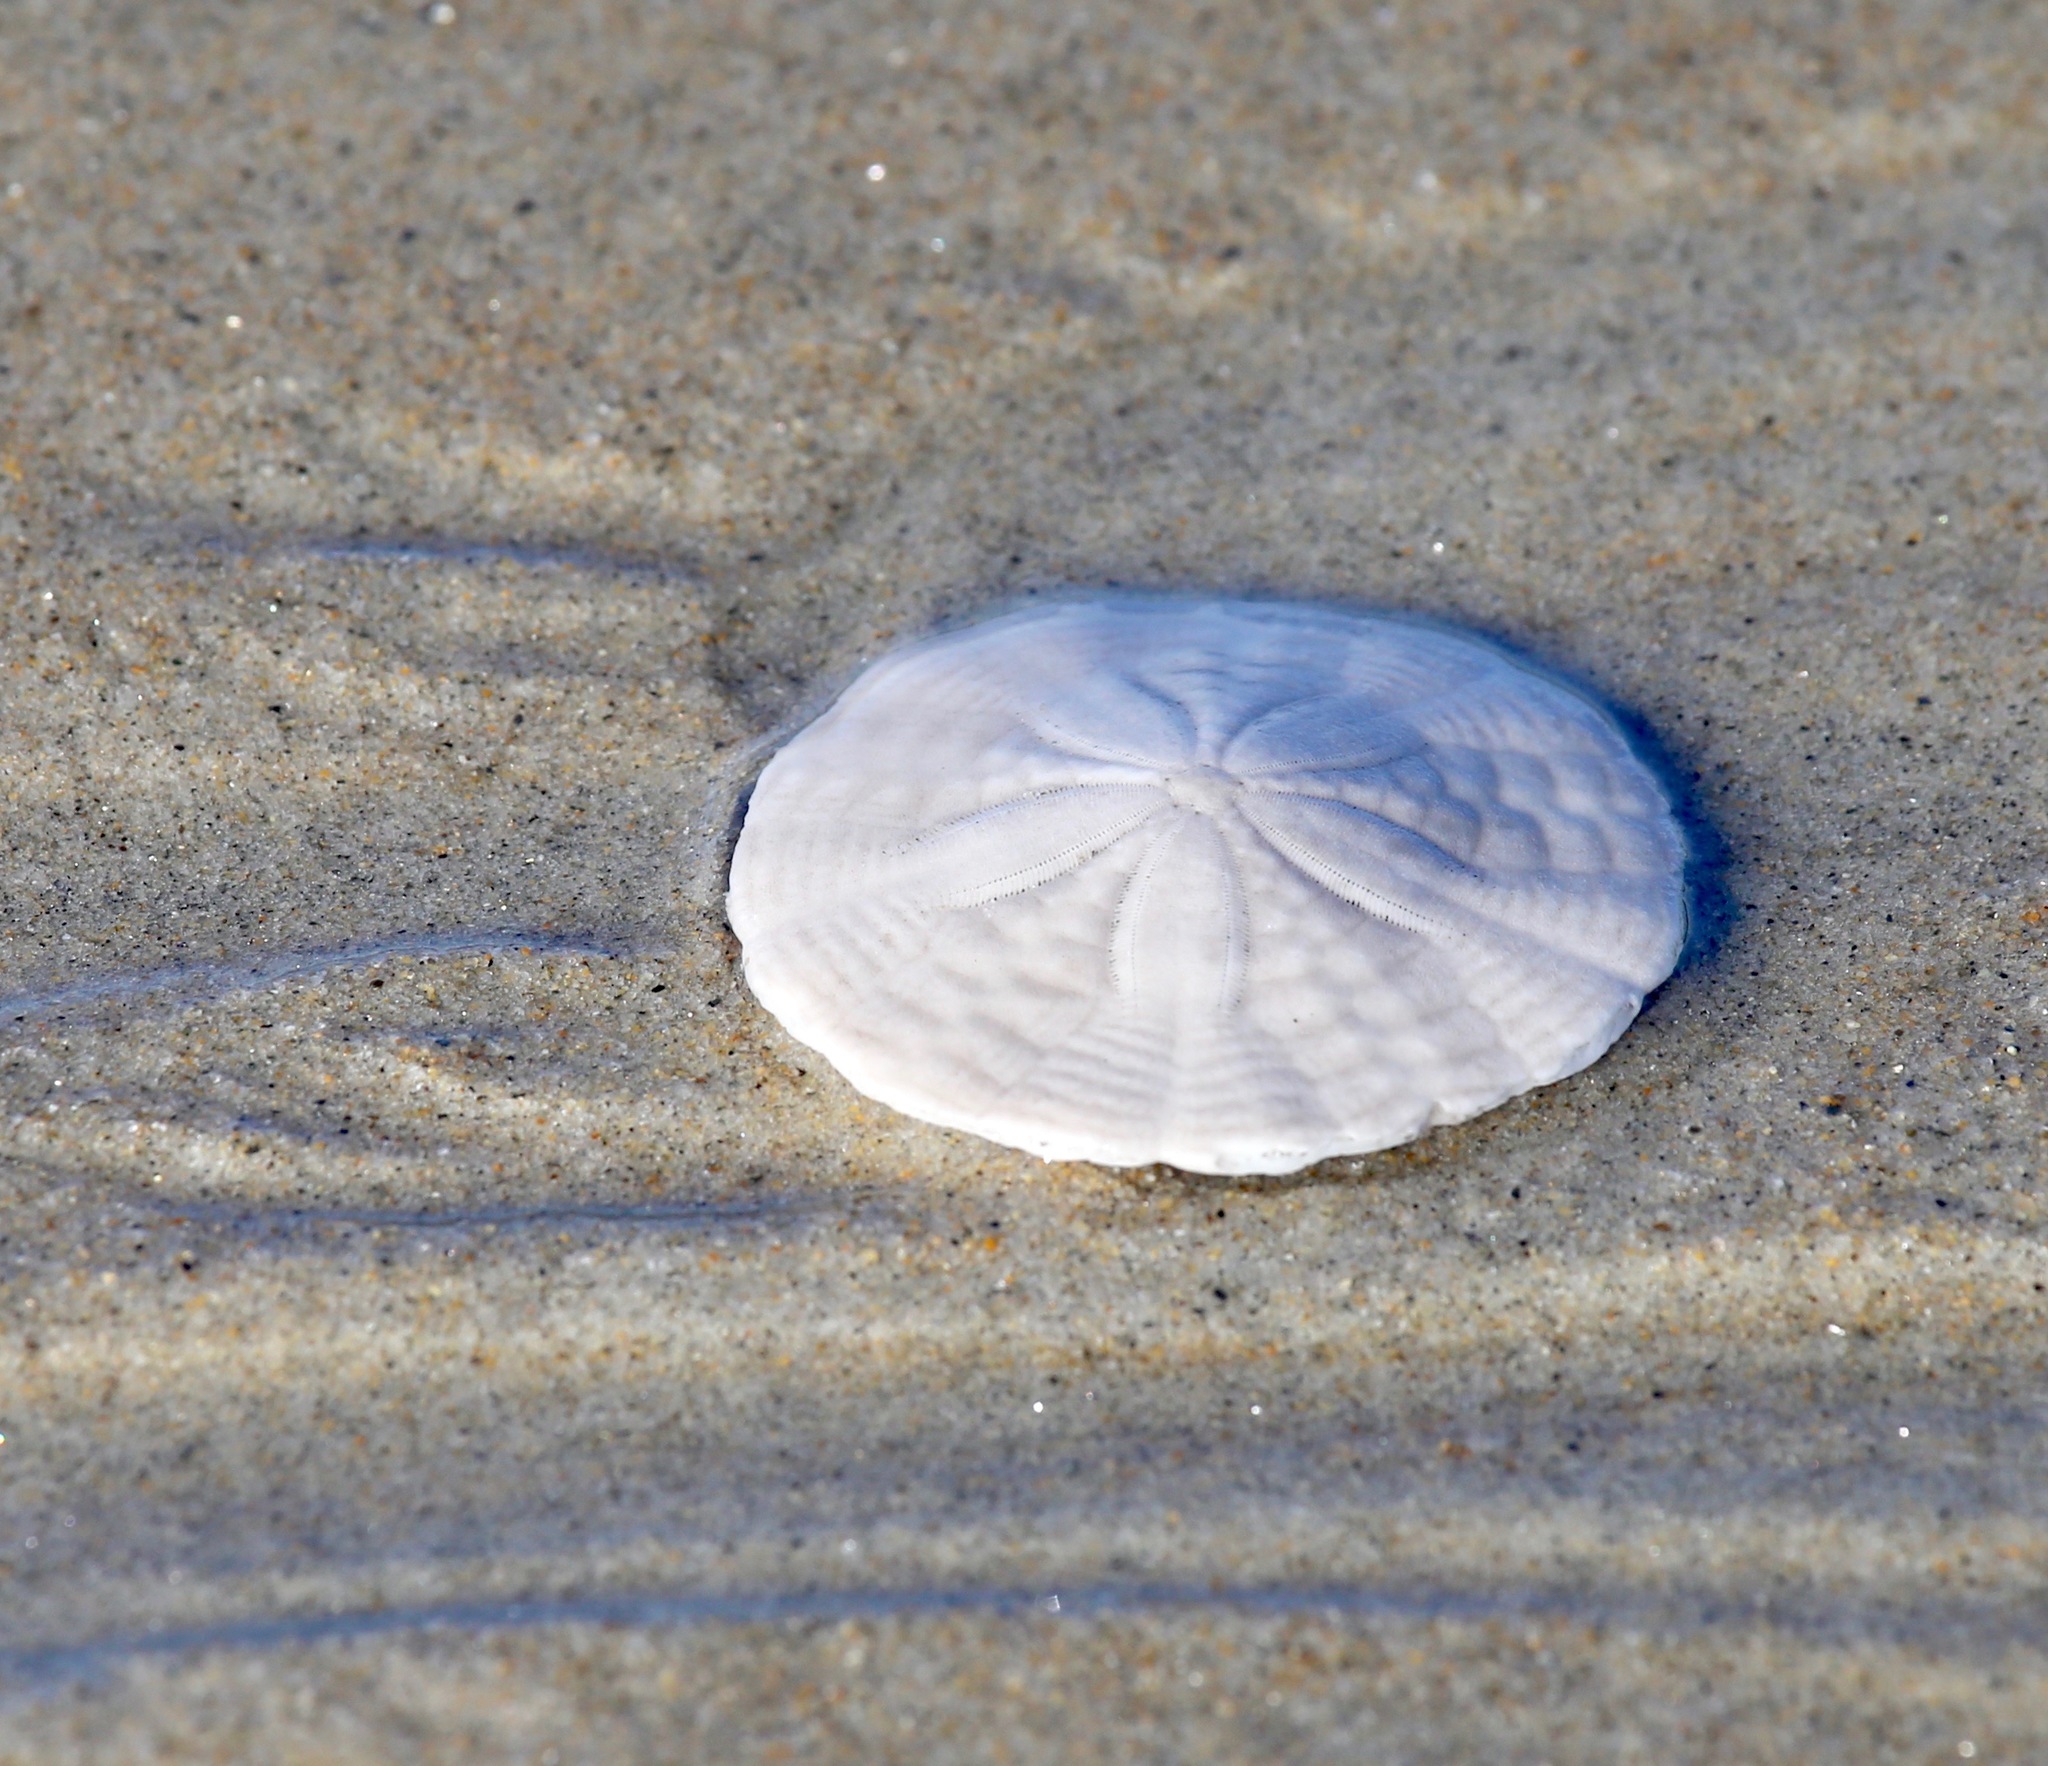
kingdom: Animalia
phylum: Echinodermata
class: Echinoidea
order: Echinolampadacea
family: Echinarachniidae
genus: Echinarachnius
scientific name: Echinarachnius parma
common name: Common sand dollar
